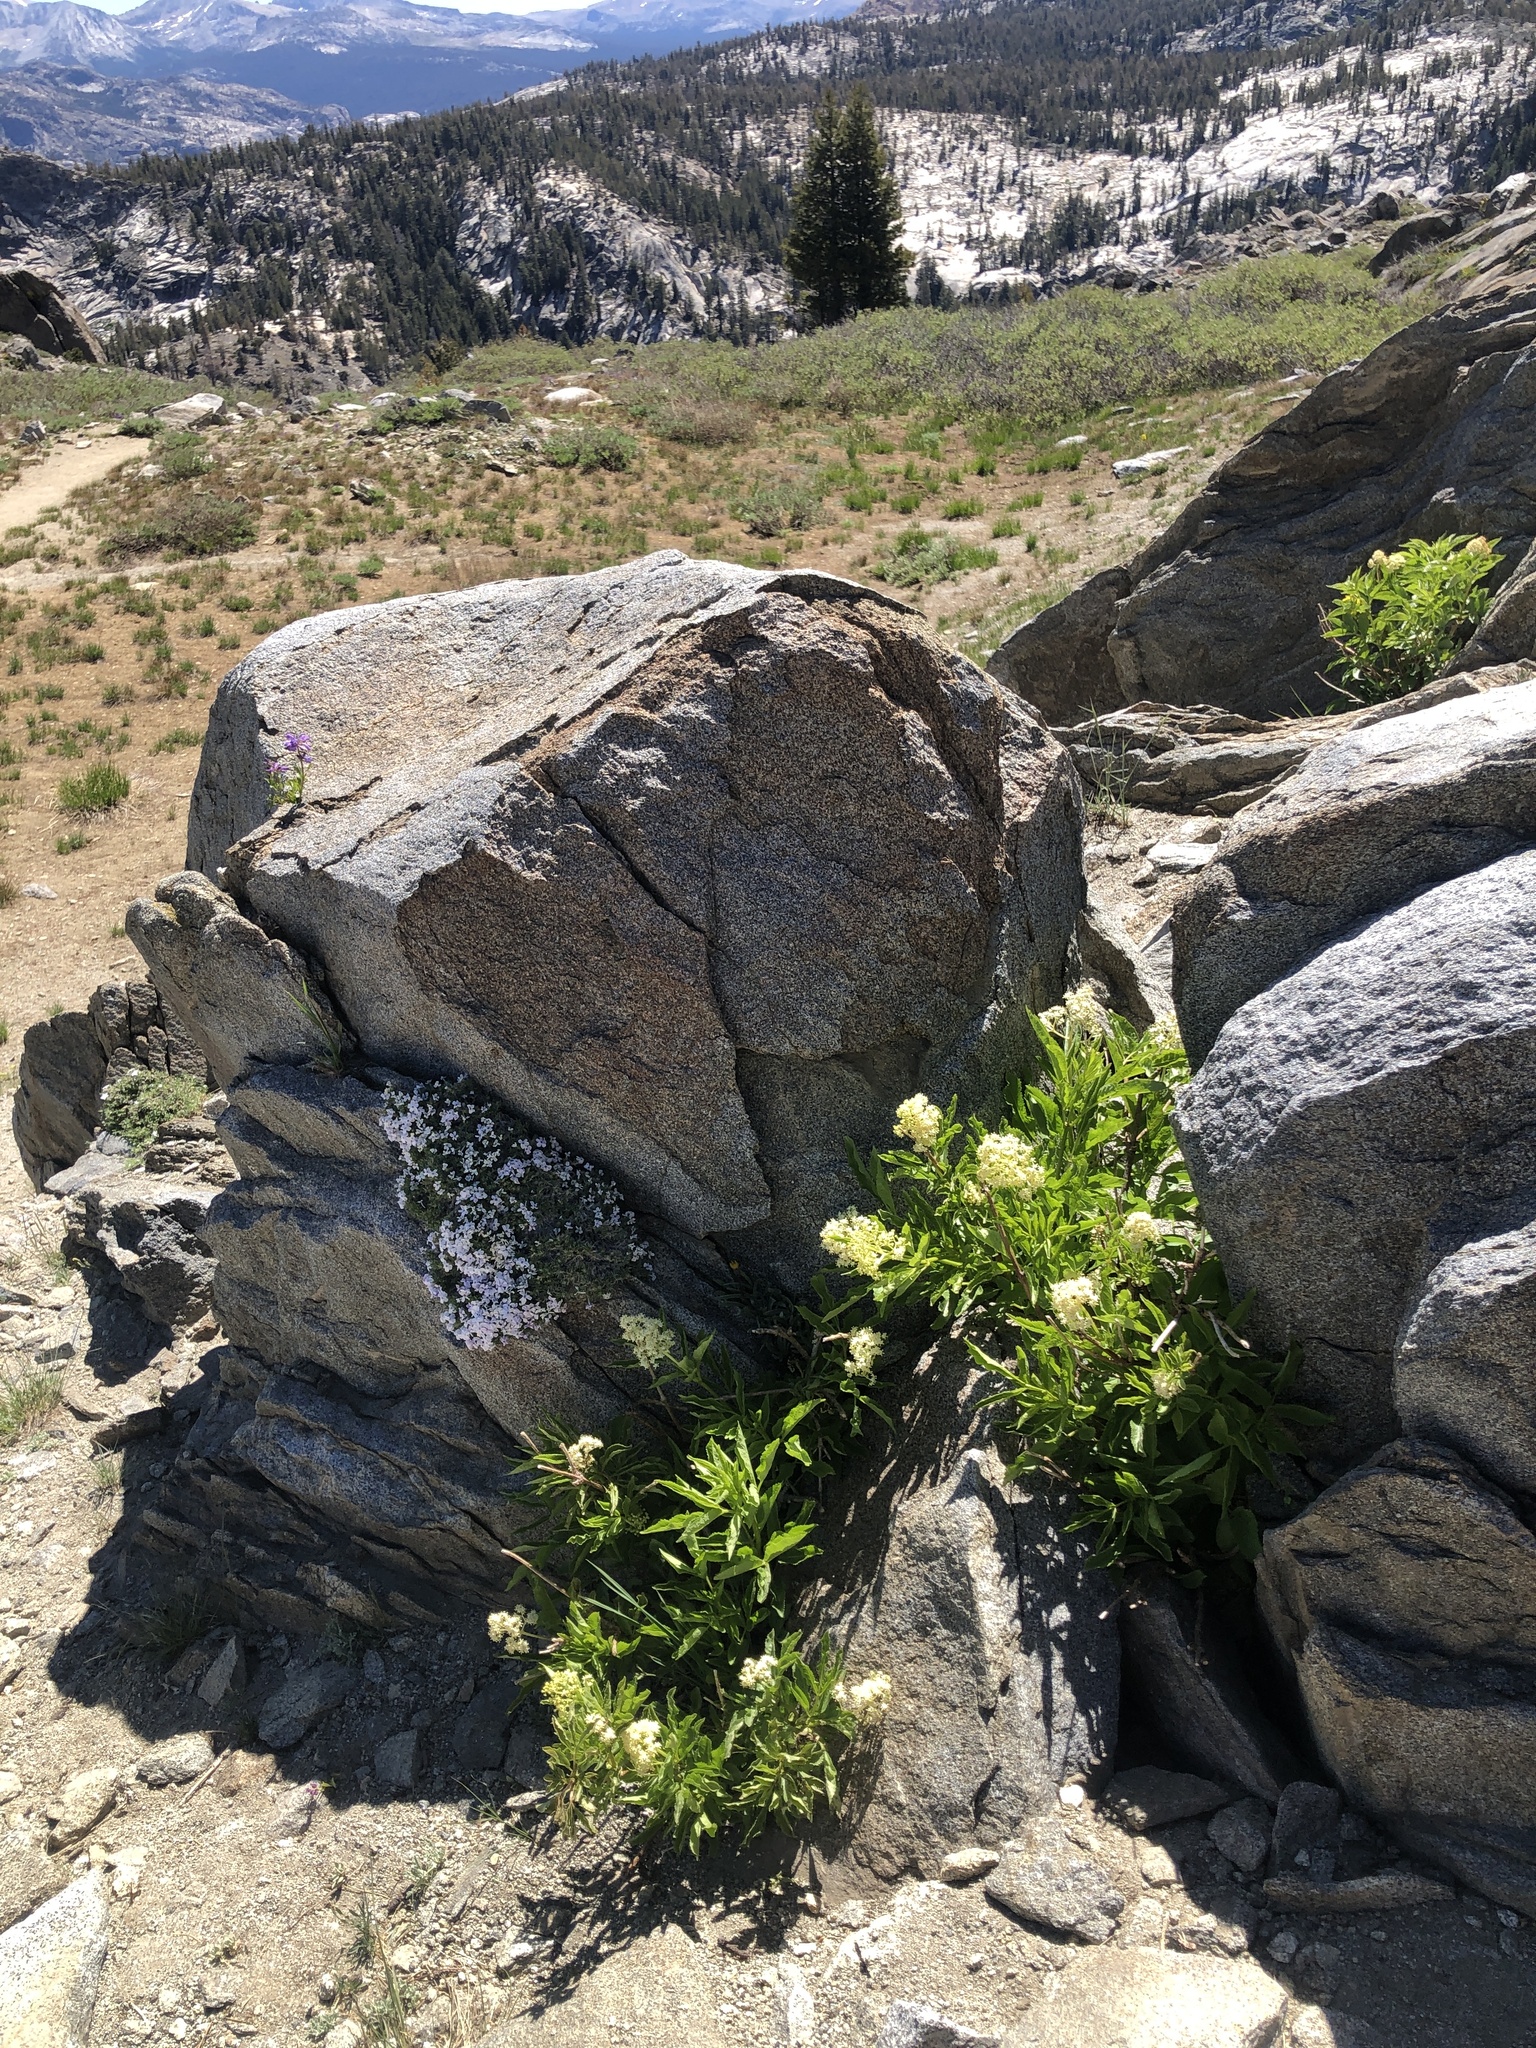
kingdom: Plantae
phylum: Tracheophyta
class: Magnoliopsida
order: Dipsacales
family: Viburnaceae
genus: Sambucus
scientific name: Sambucus racemosa
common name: Red-berried elder
